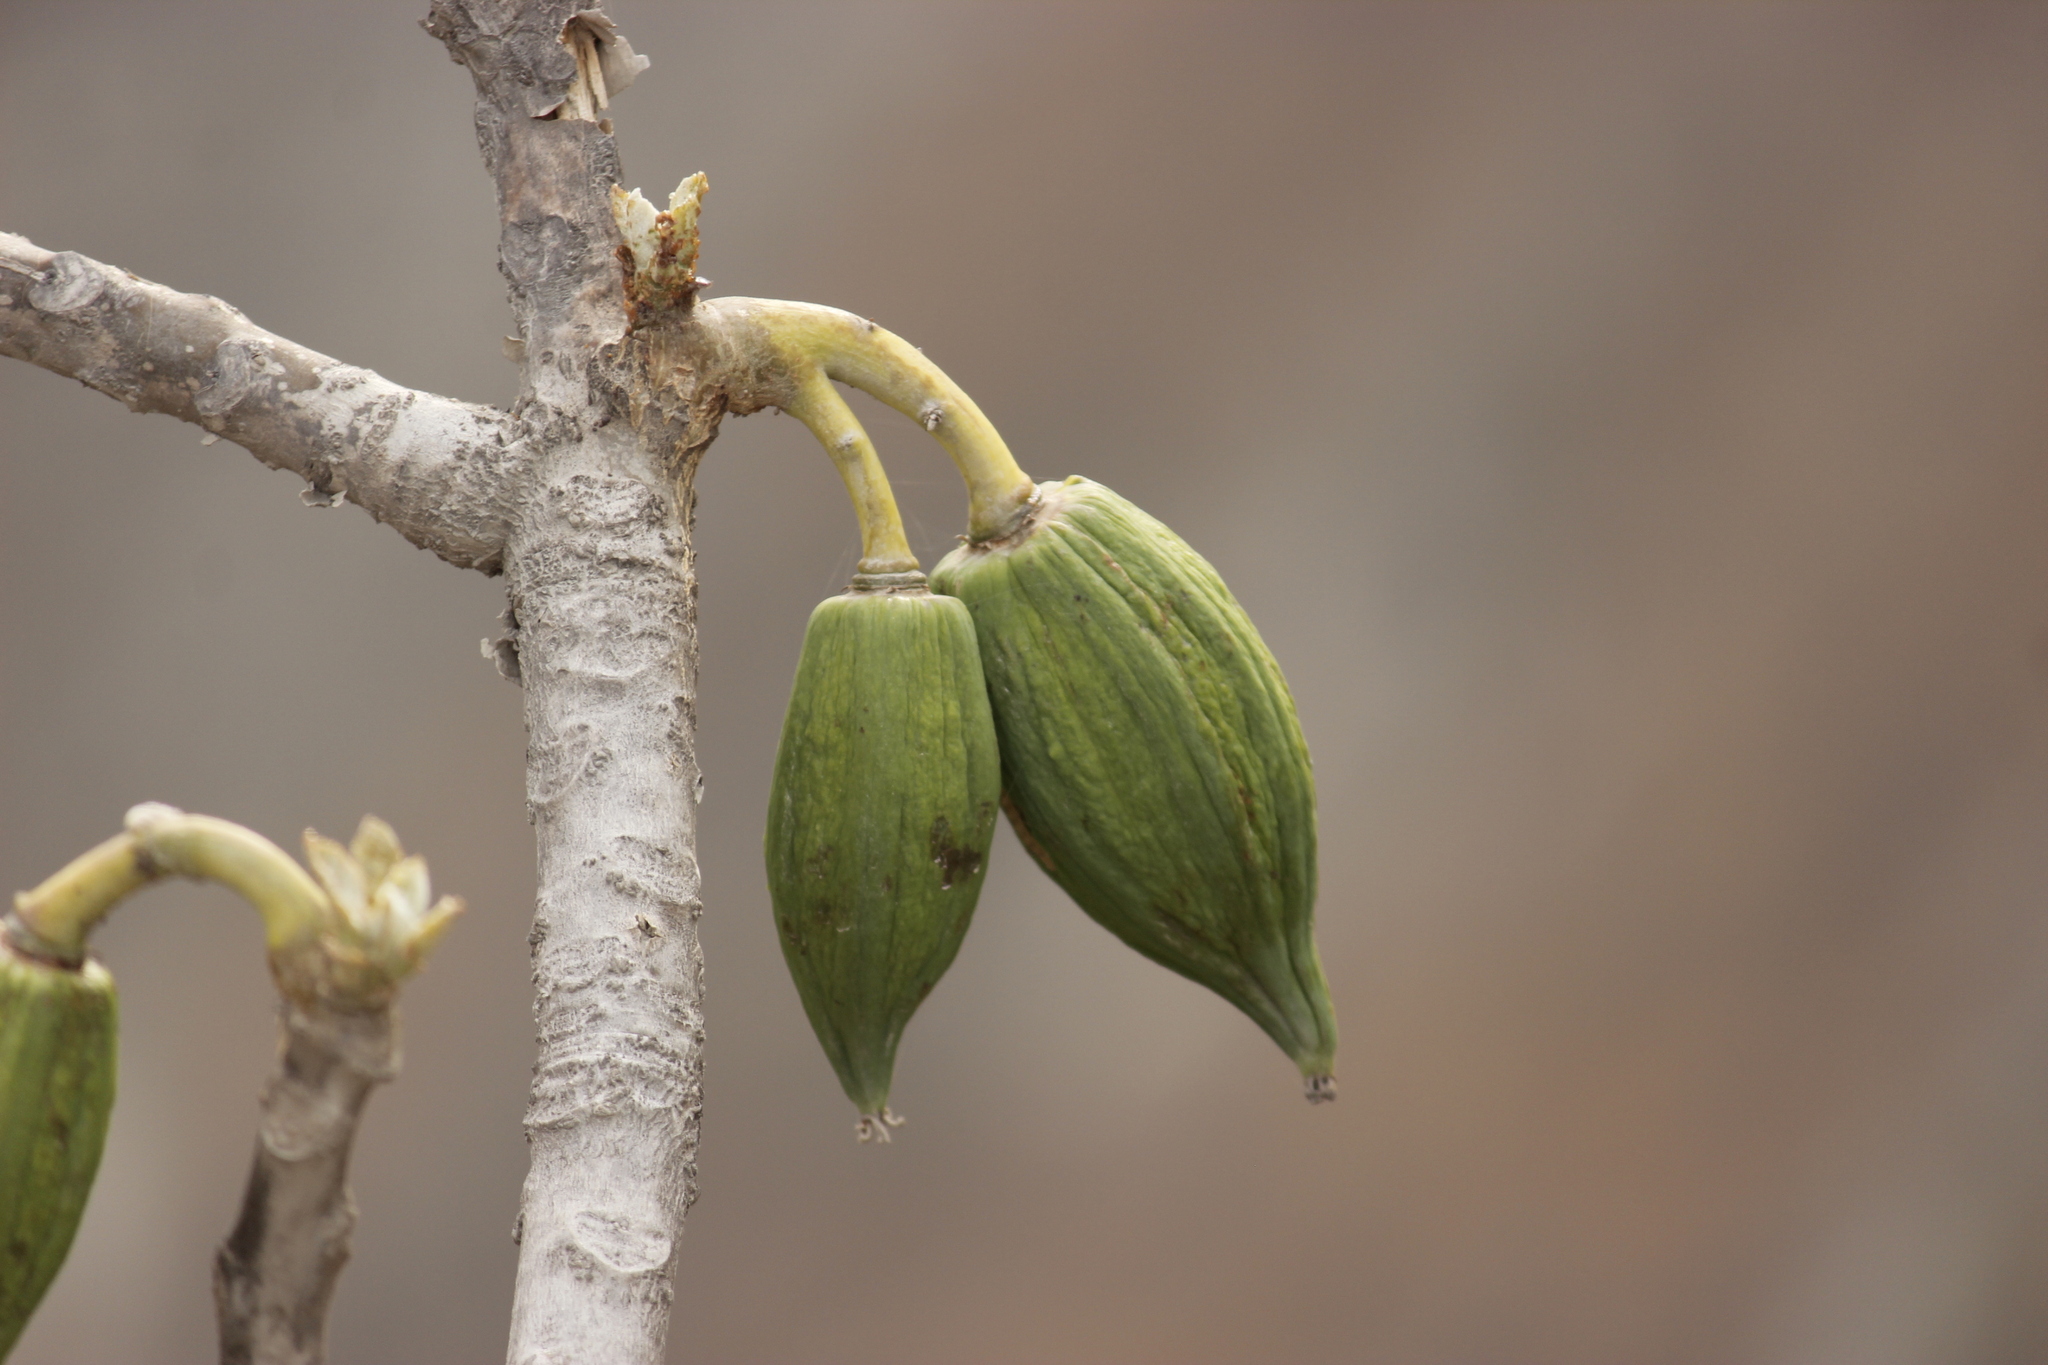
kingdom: Plantae
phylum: Tracheophyta
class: Magnoliopsida
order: Brassicales
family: Caricaceae
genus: Vasconcellea
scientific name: Vasconcellea candicans
